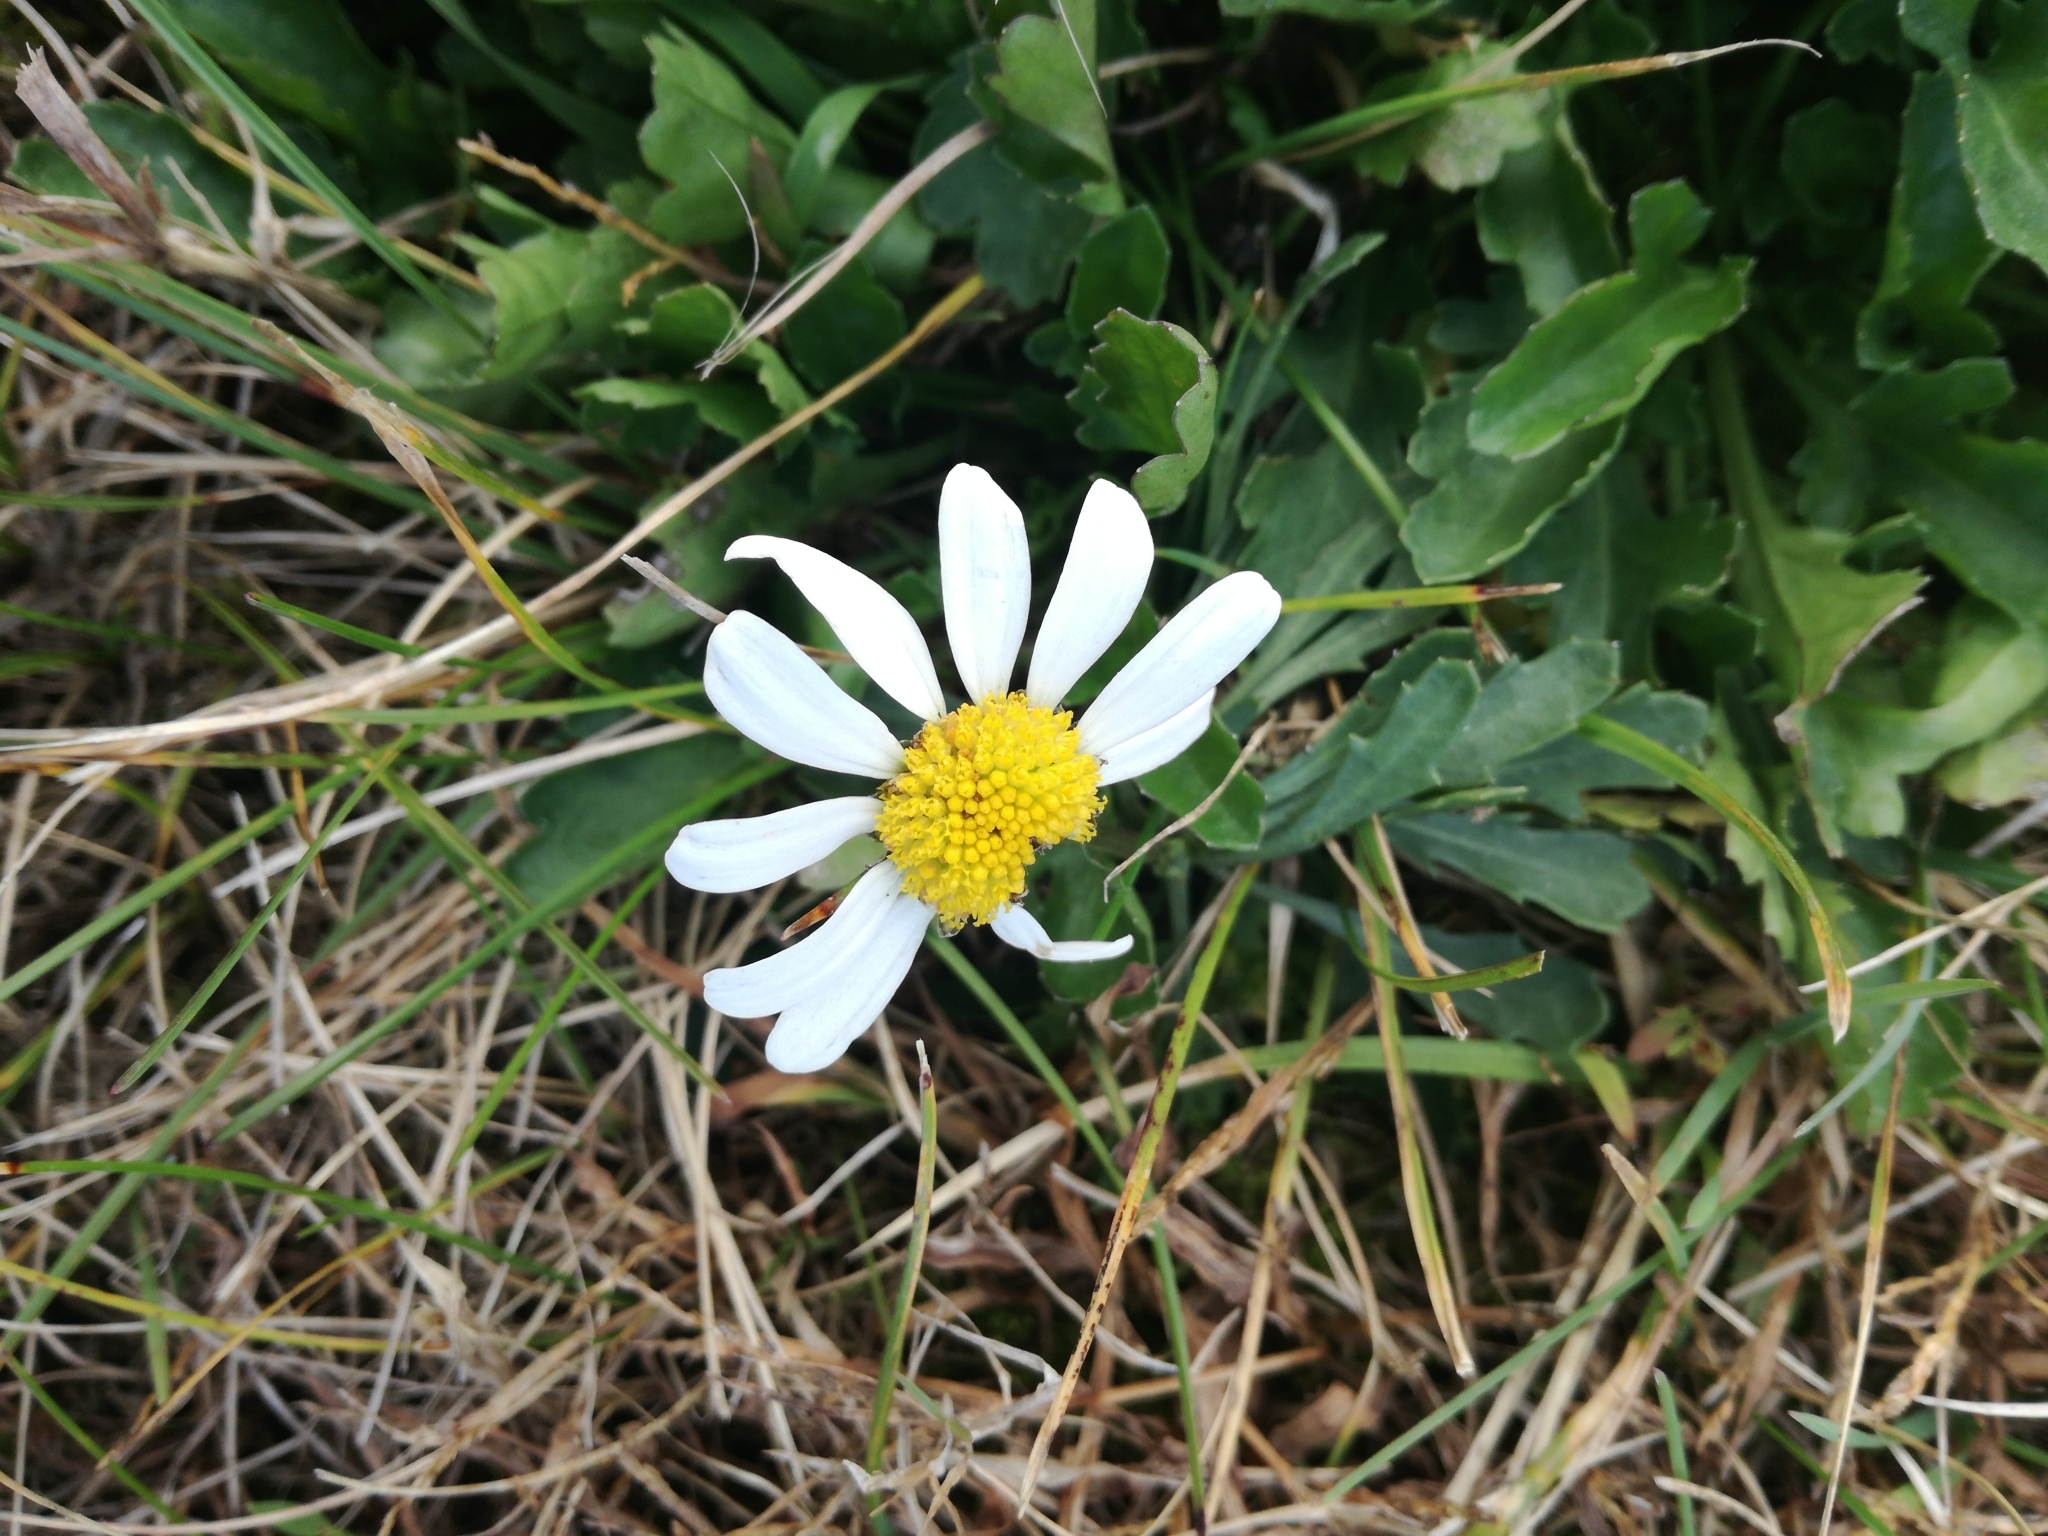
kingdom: Plantae
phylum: Tracheophyta
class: Magnoliopsida
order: Asterales
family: Asteraceae
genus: Leucanthemum
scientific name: Leucanthemum vulgare
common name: Oxeye daisy
